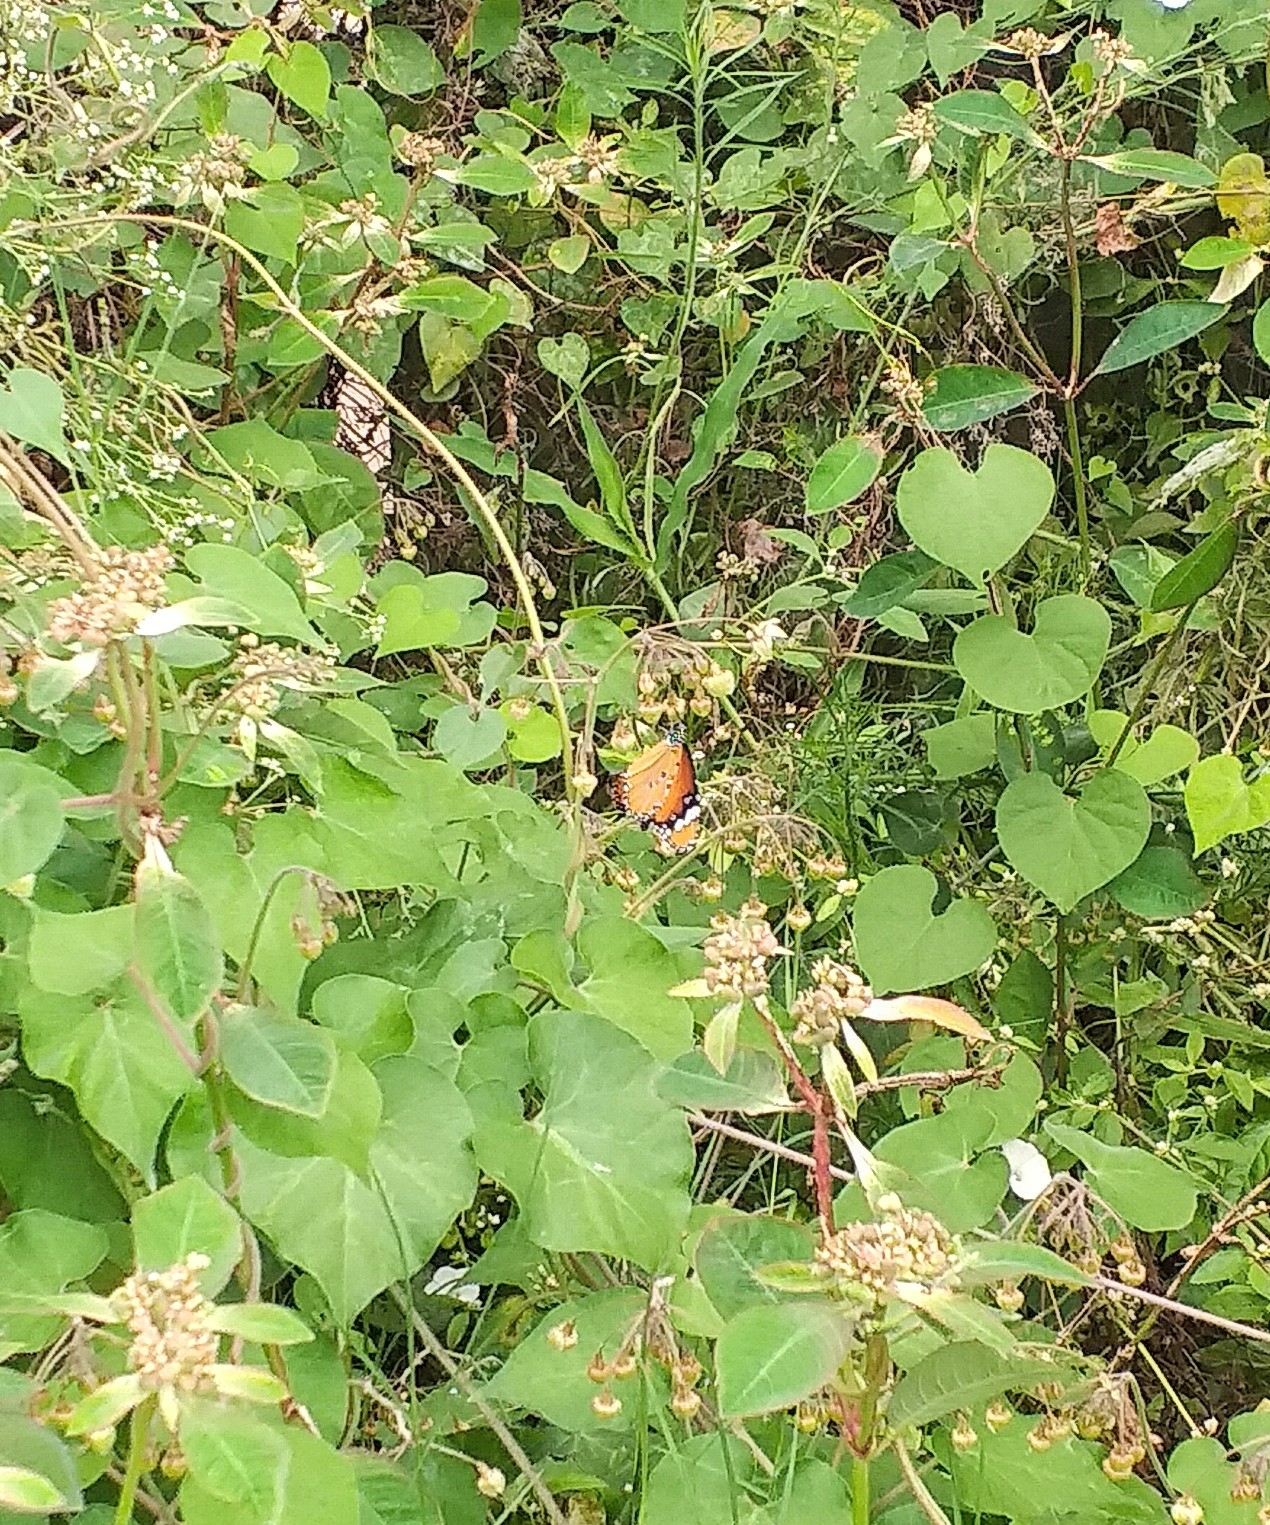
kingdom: Animalia
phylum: Arthropoda
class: Insecta
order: Lepidoptera
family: Nymphalidae
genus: Danaus
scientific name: Danaus chrysippus
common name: Plain tiger
